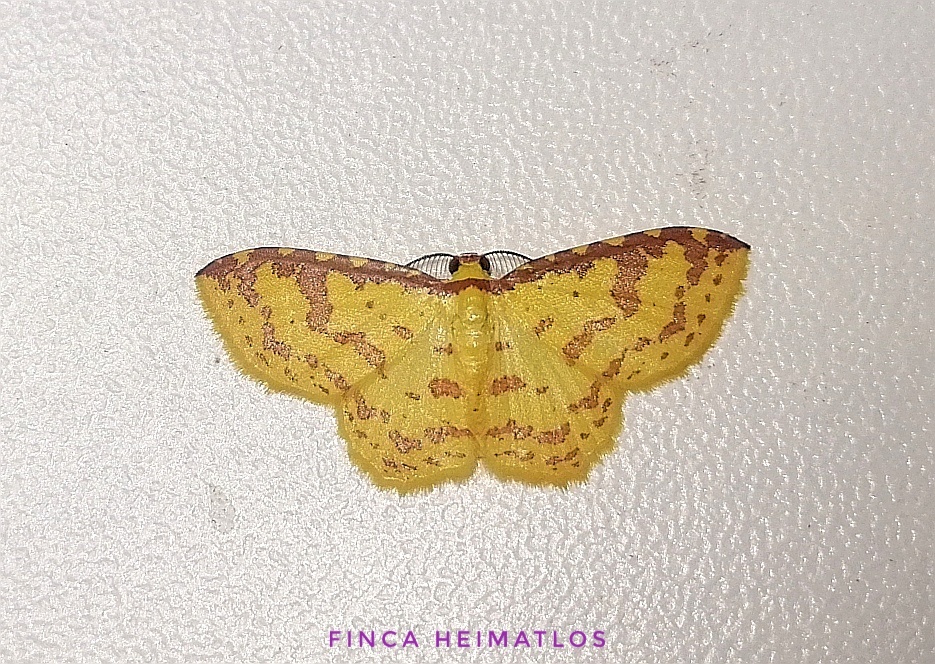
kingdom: Animalia
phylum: Arthropoda
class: Insecta
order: Lepidoptera
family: Geometridae
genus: Eois
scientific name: Eois russearia
